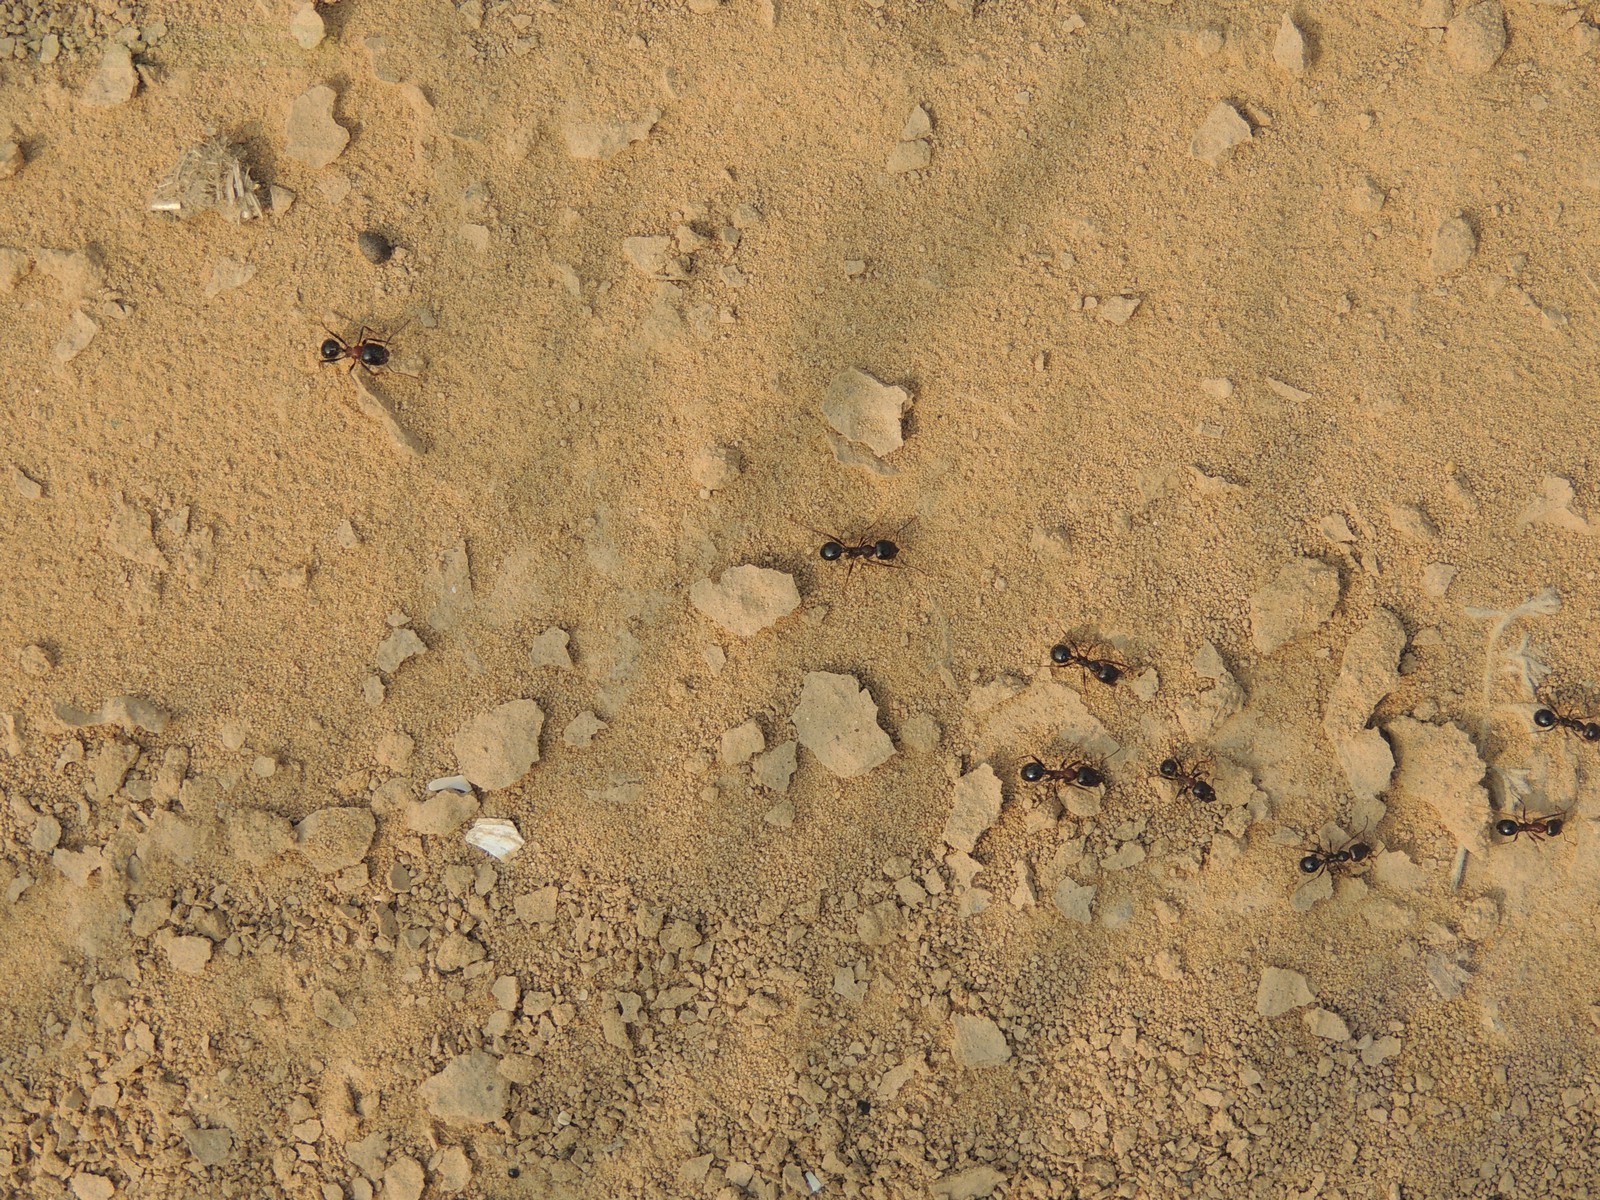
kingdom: Animalia
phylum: Arthropoda
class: Insecta
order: Hymenoptera
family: Formicidae
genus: Messor
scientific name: Messor denticulatus
